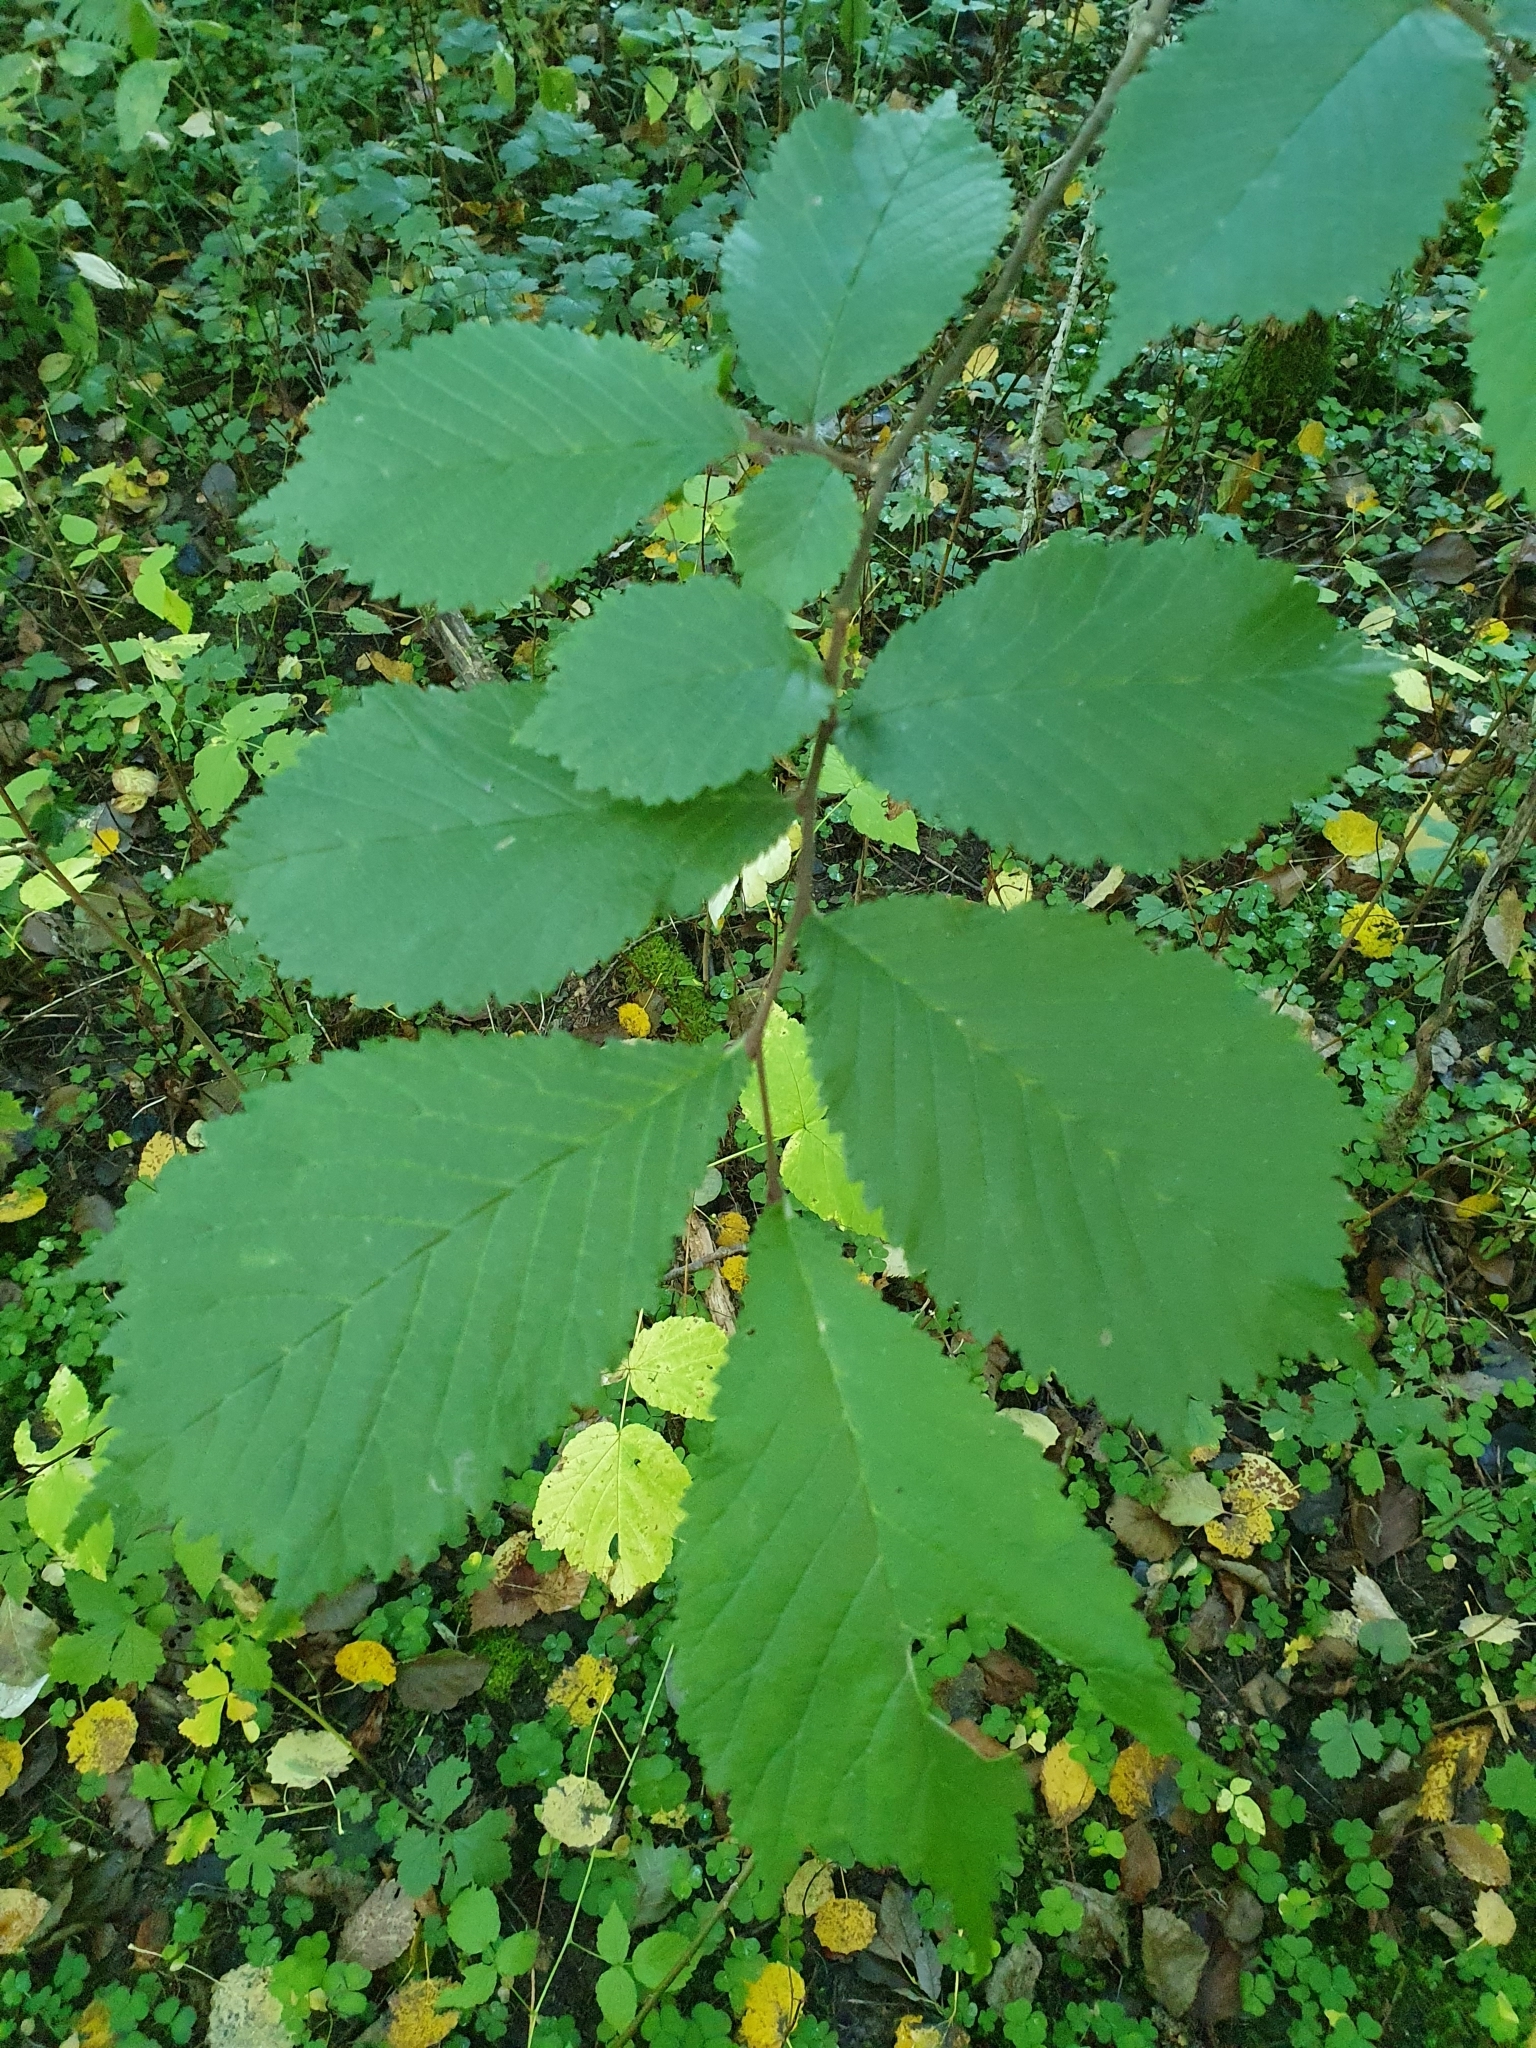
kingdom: Plantae
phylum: Tracheophyta
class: Magnoliopsida
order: Rosales
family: Ulmaceae
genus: Ulmus
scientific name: Ulmus glabra
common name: Wych elm
